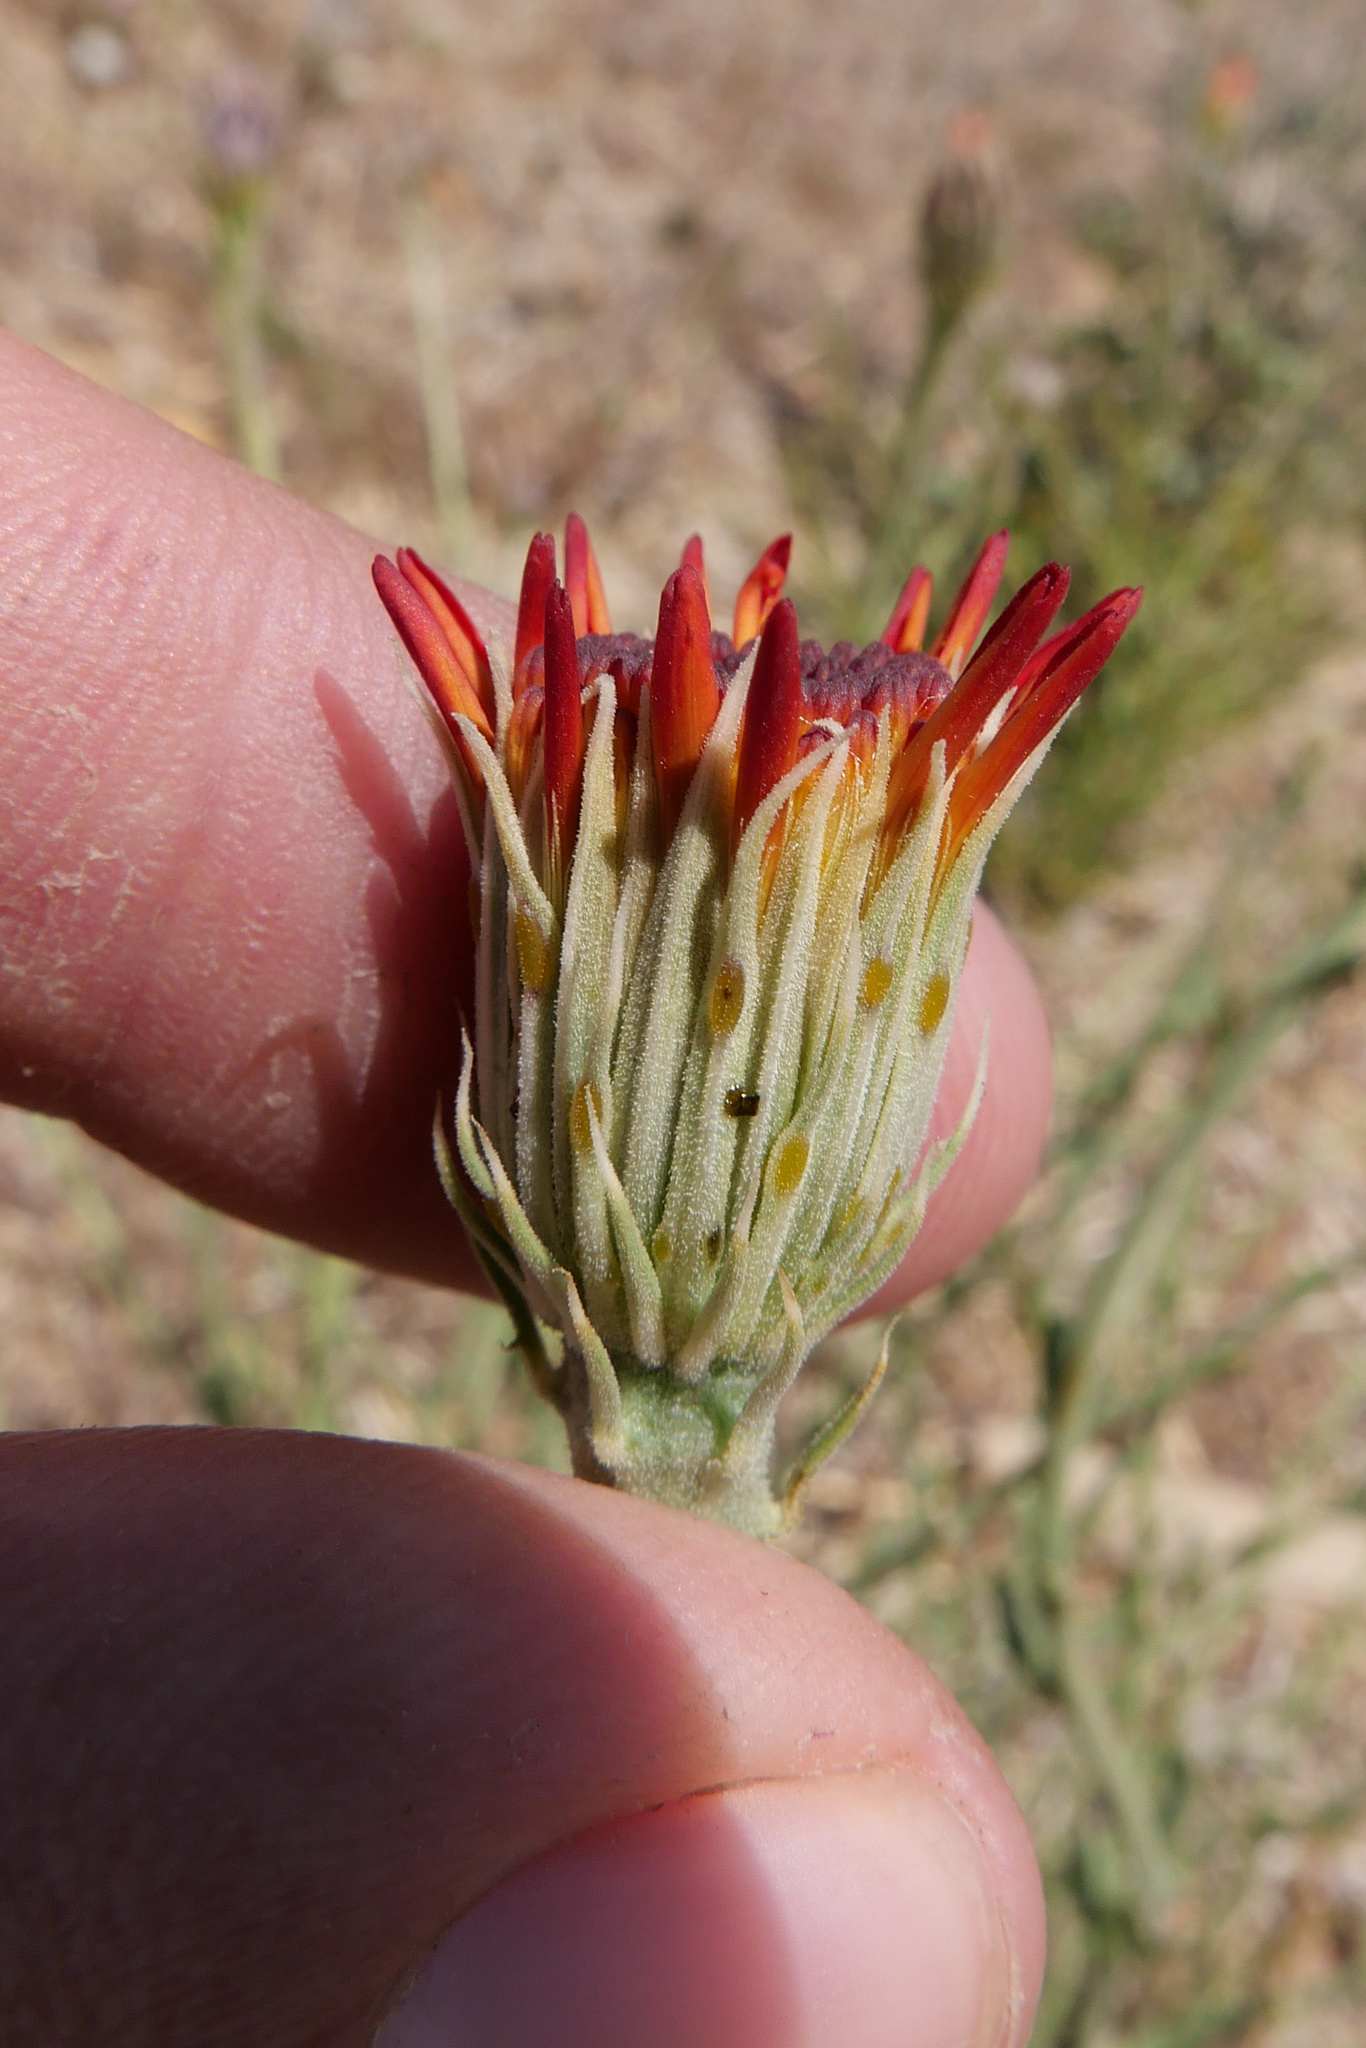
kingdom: Plantae
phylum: Tracheophyta
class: Magnoliopsida
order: Asterales
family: Asteraceae
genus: Adenophyllum
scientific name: Adenophyllum cooperi
